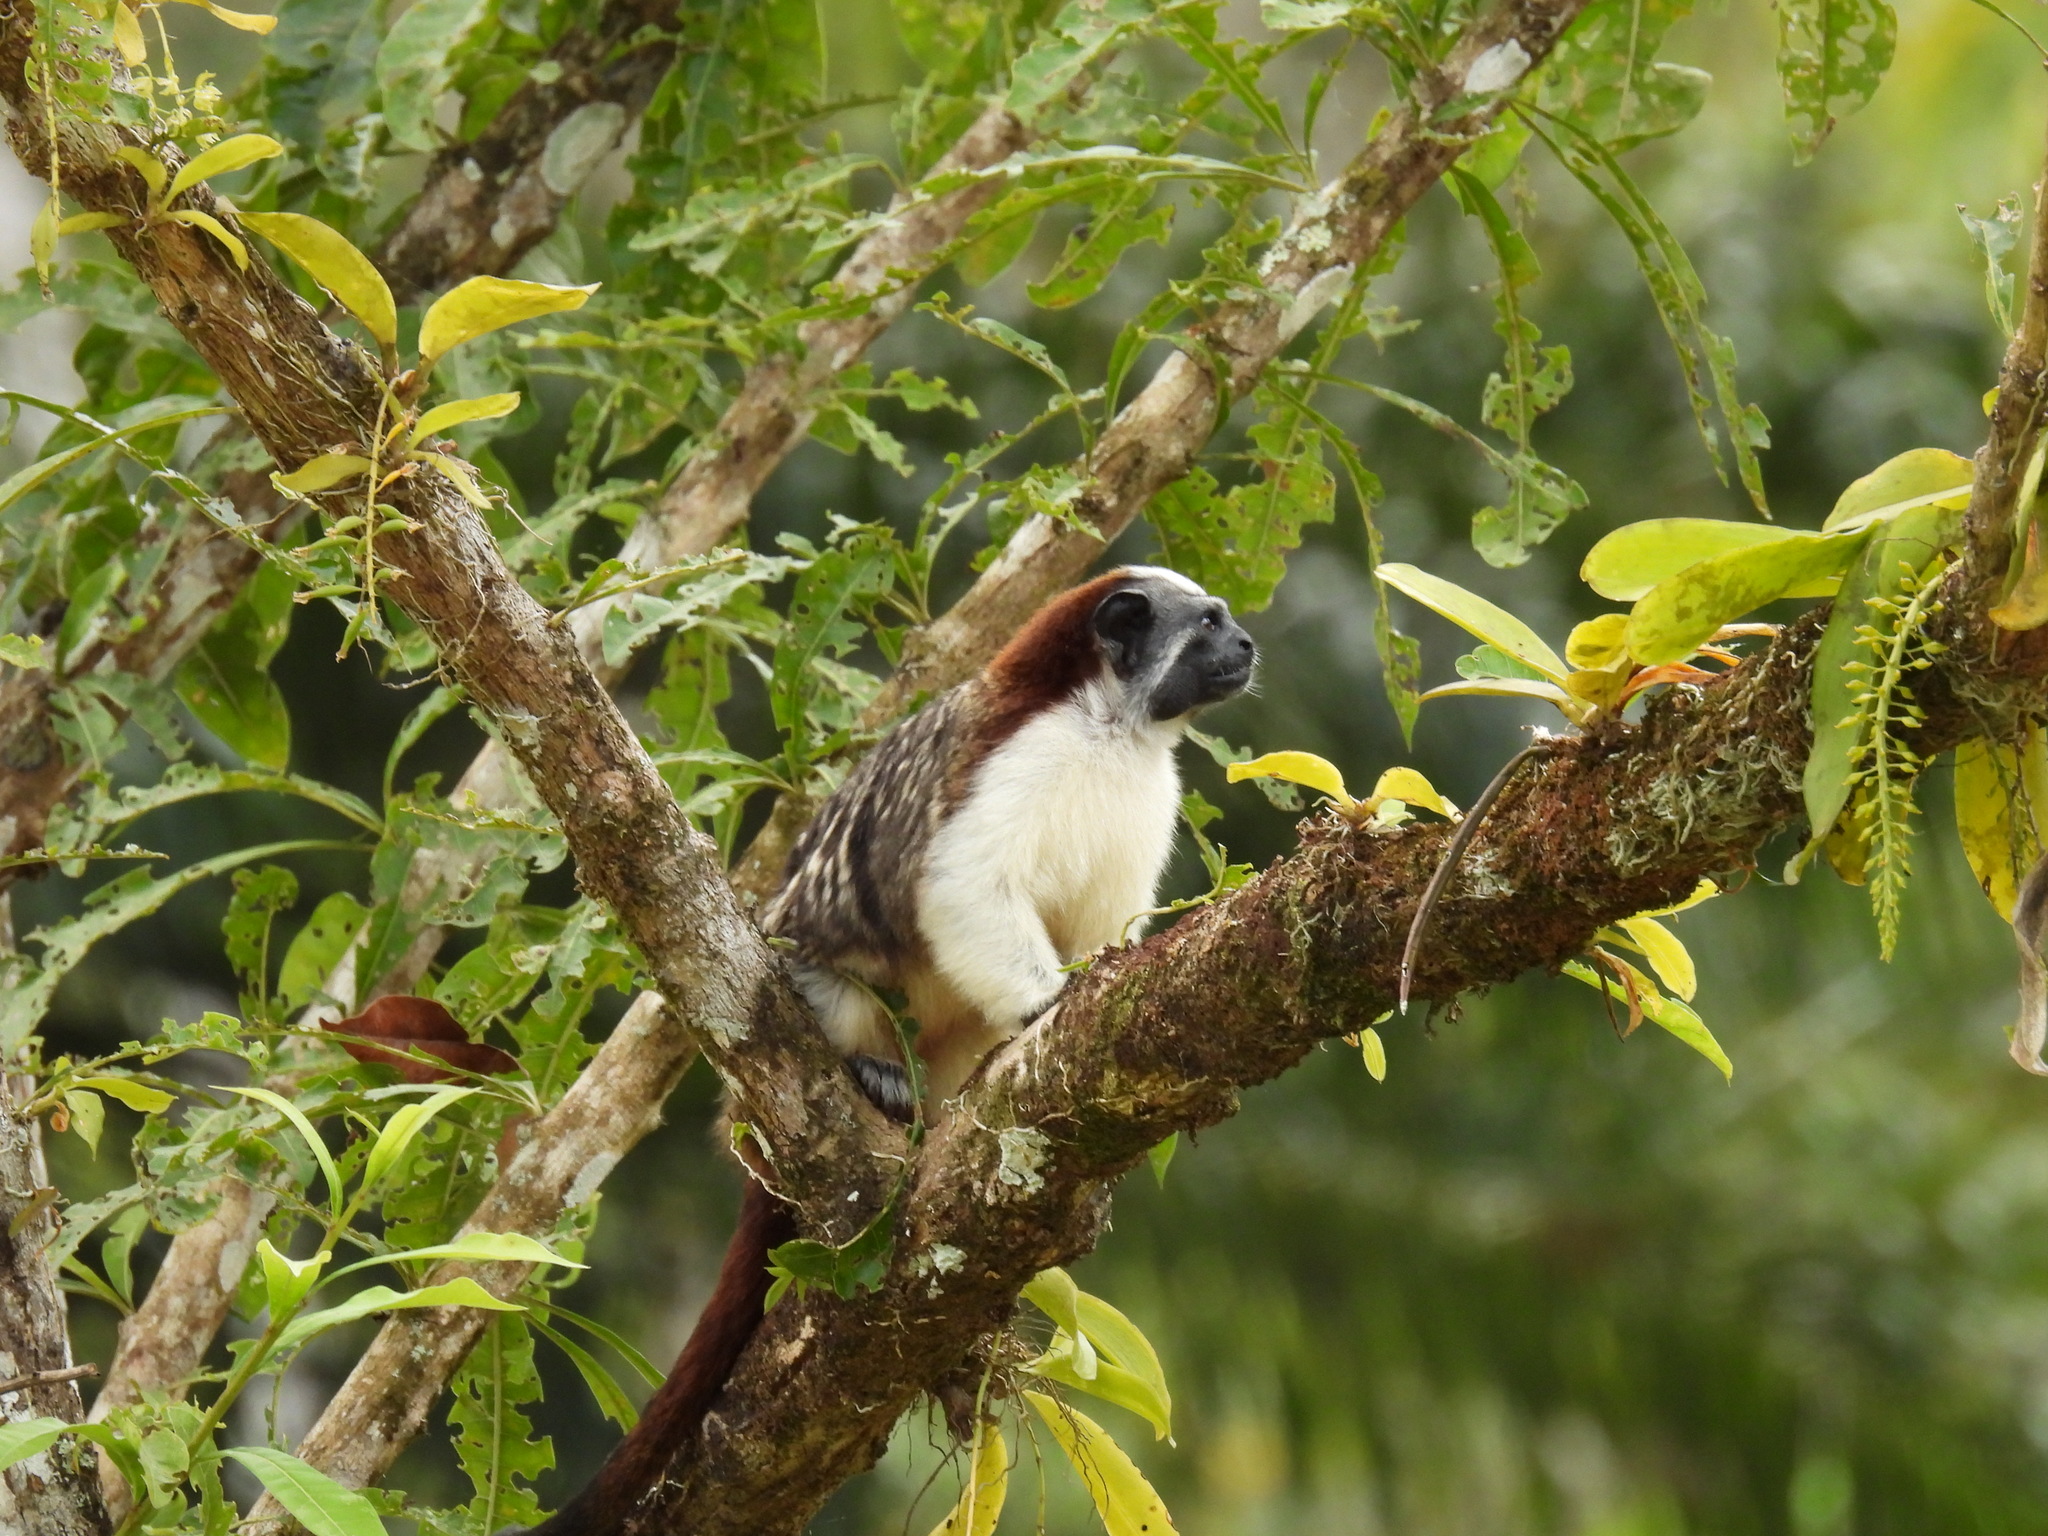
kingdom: Animalia
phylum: Chordata
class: Mammalia
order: Primates
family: Callitrichidae
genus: Saguinus
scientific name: Saguinus geoffroyi
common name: Geoffroy s tamarin
